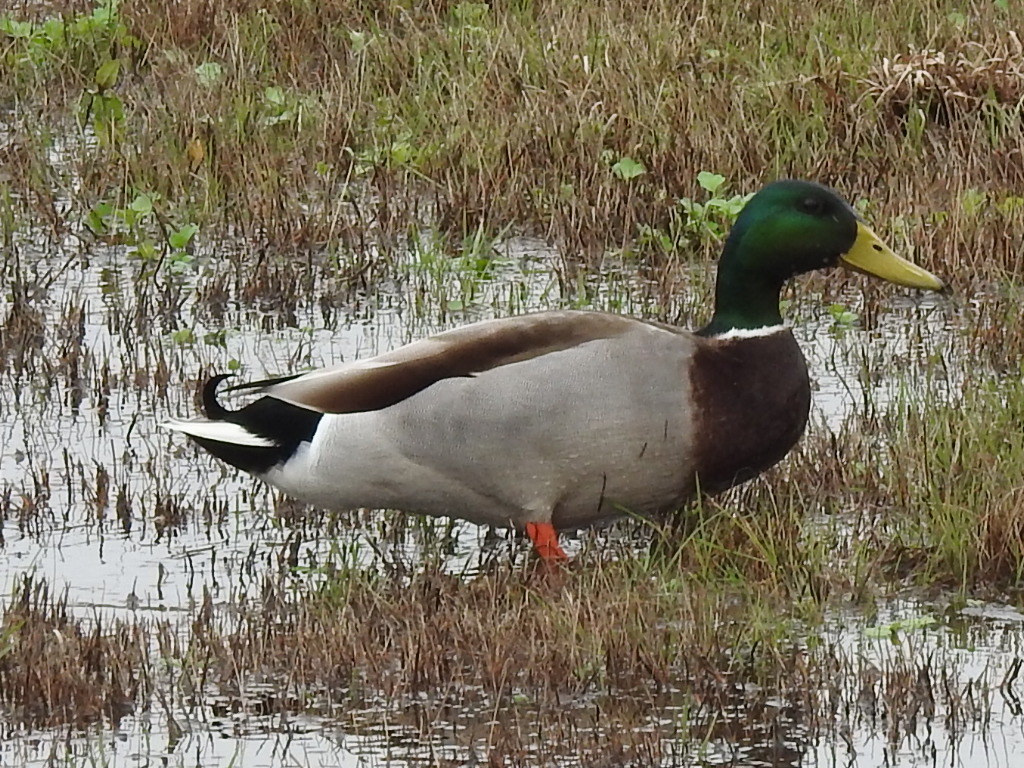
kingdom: Animalia
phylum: Chordata
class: Aves
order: Anseriformes
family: Anatidae
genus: Anas
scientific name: Anas platyrhynchos
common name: Mallard
